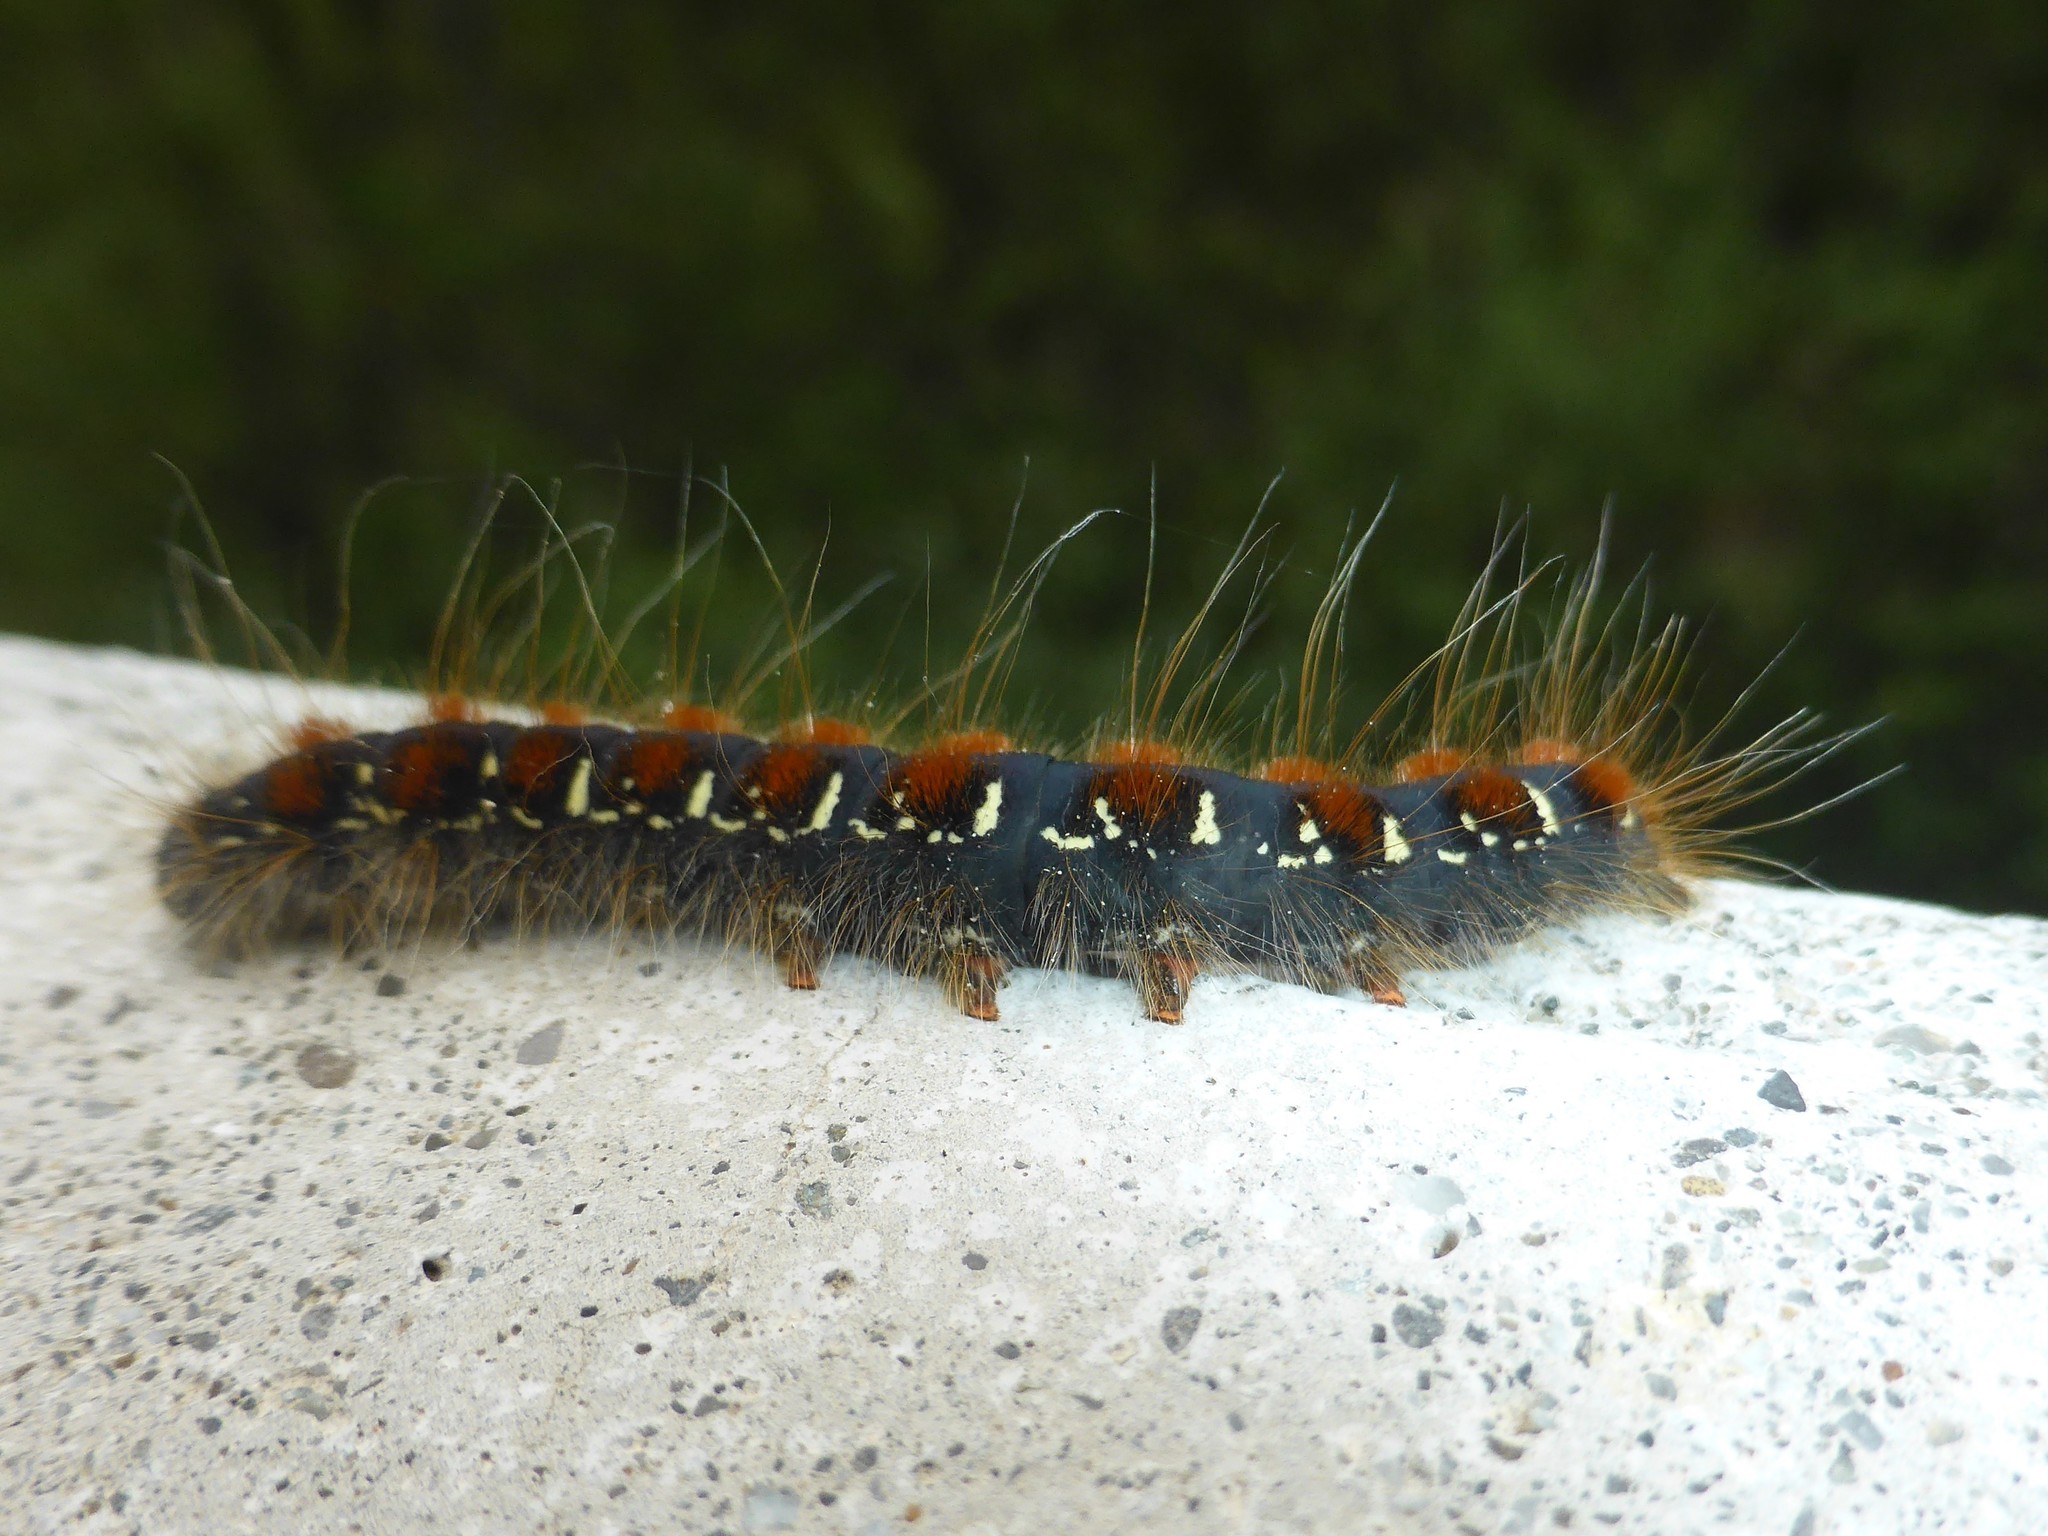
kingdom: Animalia
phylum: Arthropoda
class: Insecta
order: Lepidoptera
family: Lasiocampidae
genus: Eriogaster
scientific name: Eriogaster lanestris
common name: Small eggar
